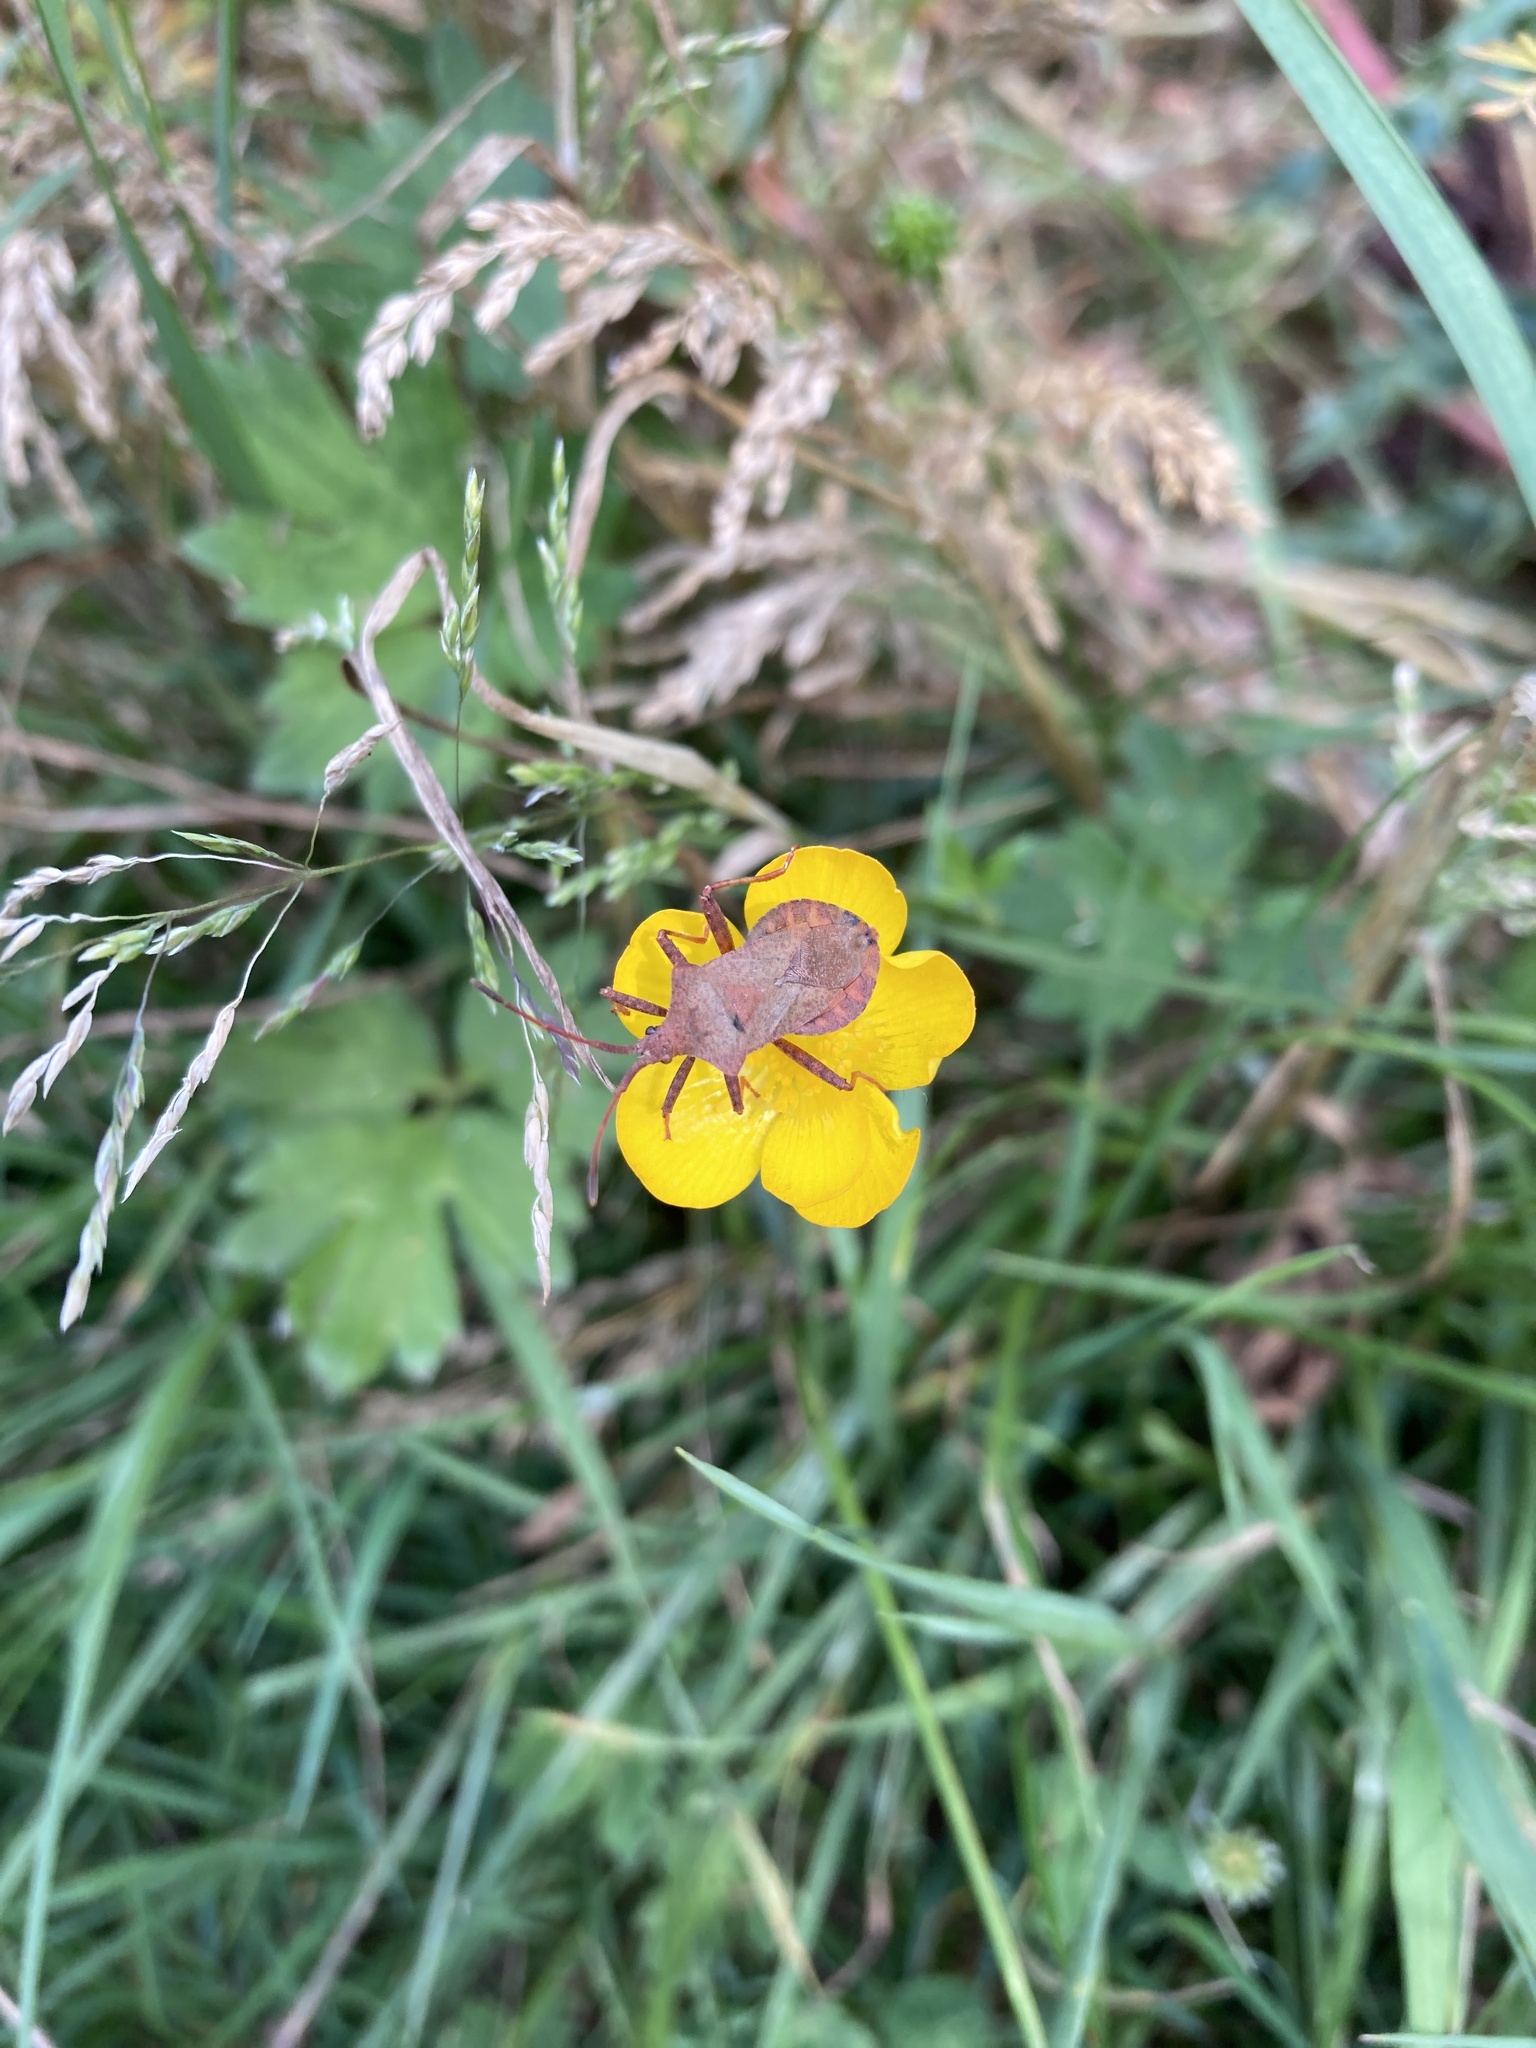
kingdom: Animalia
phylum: Arthropoda
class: Insecta
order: Hemiptera
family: Coreidae
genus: Coreus
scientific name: Coreus marginatus
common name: Dock bug
